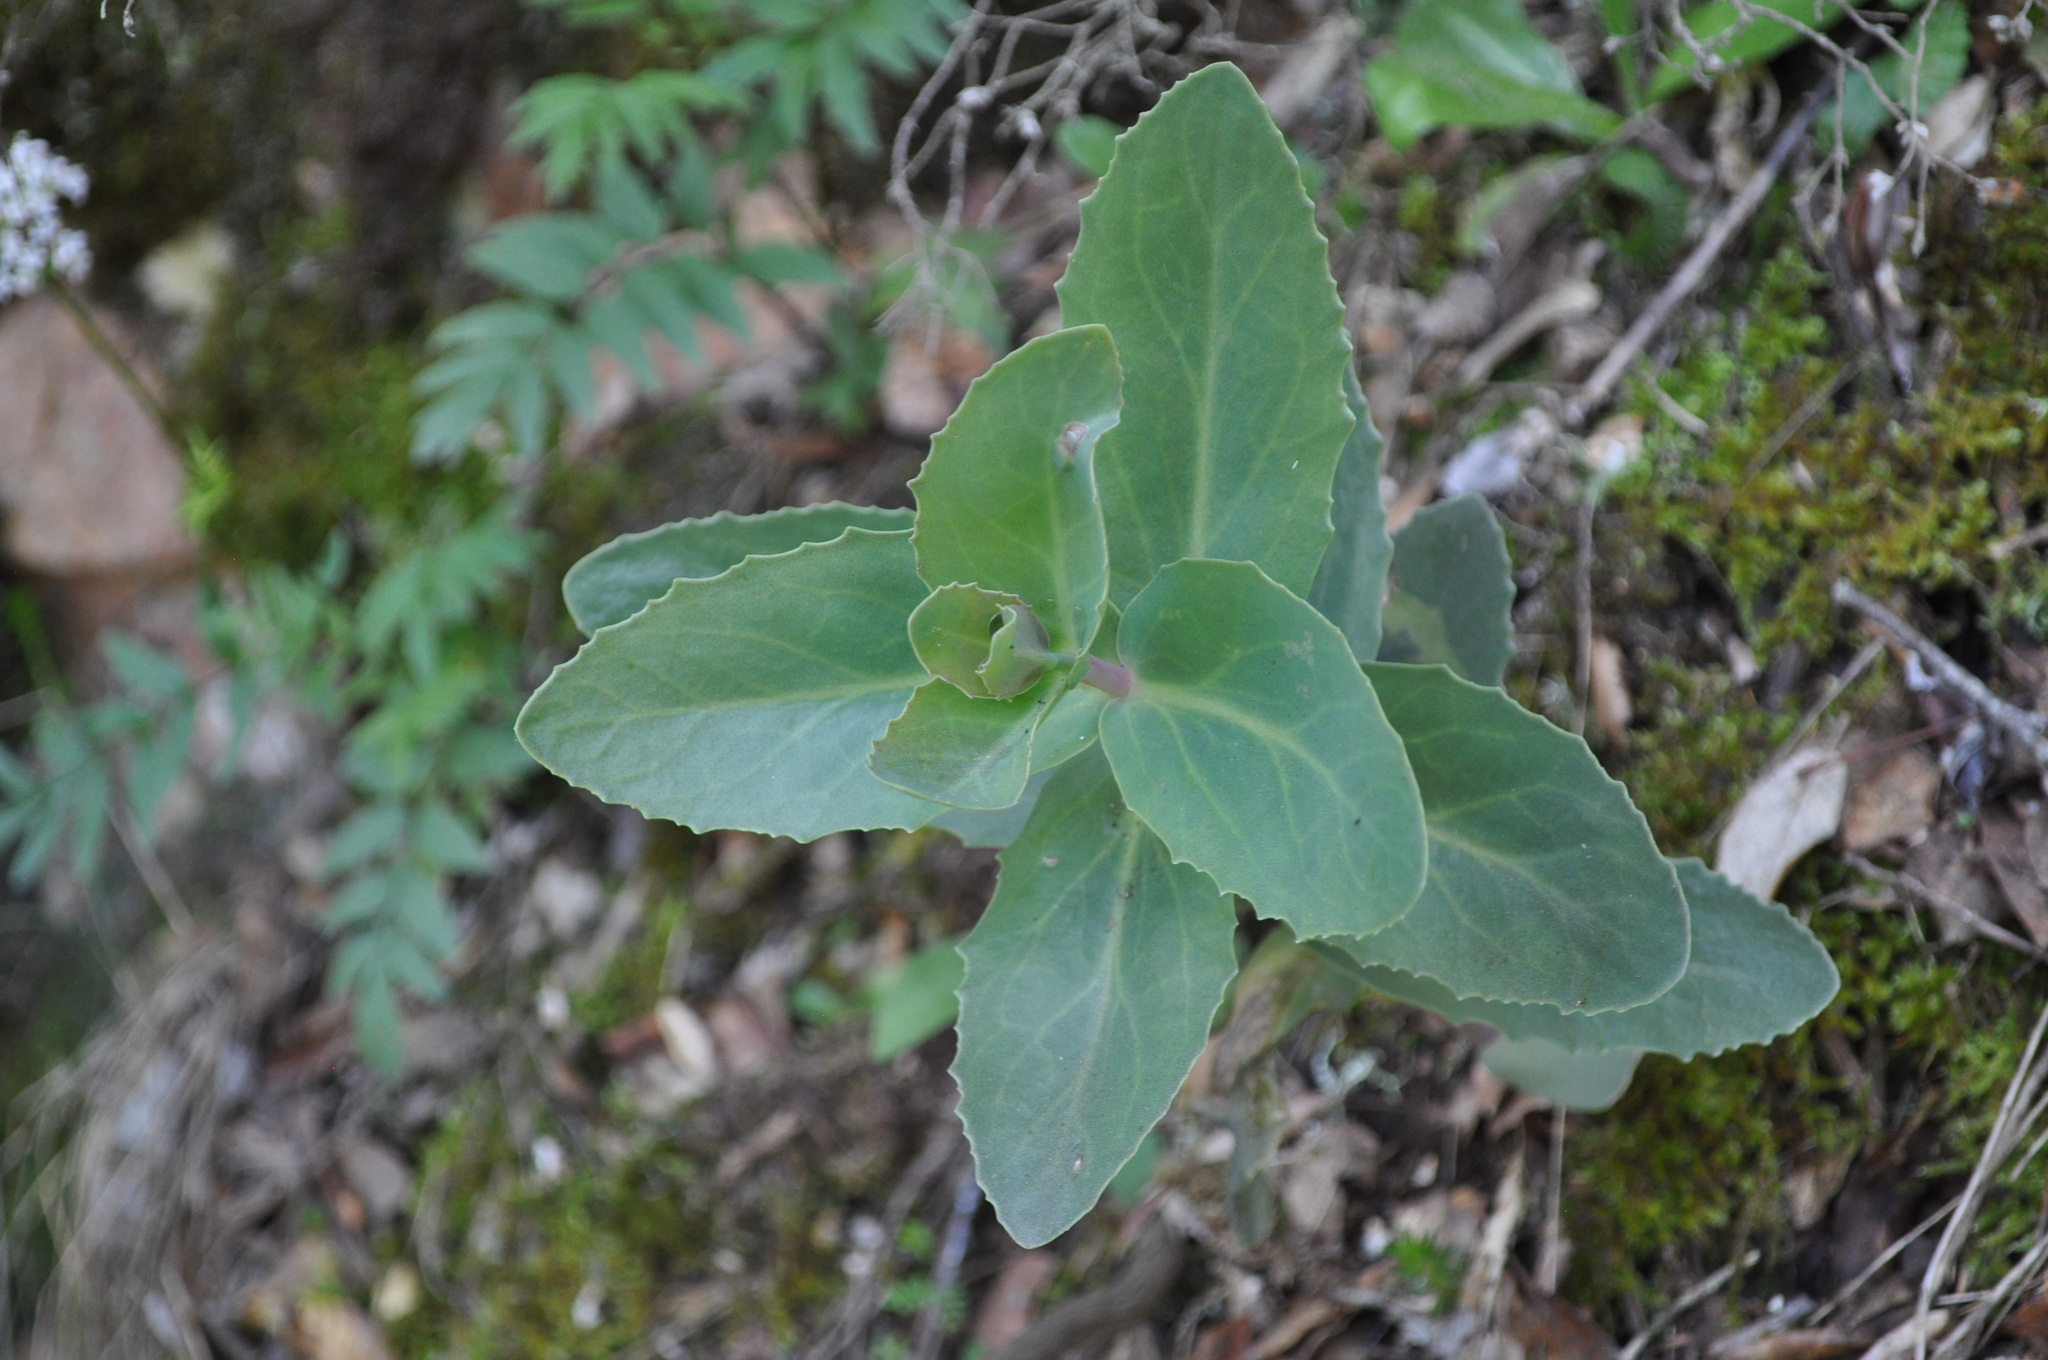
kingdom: Plantae
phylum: Tracheophyta
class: Magnoliopsida
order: Saxifragales
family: Crassulaceae
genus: Hylotelephium
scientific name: Hylotelephium maximum
